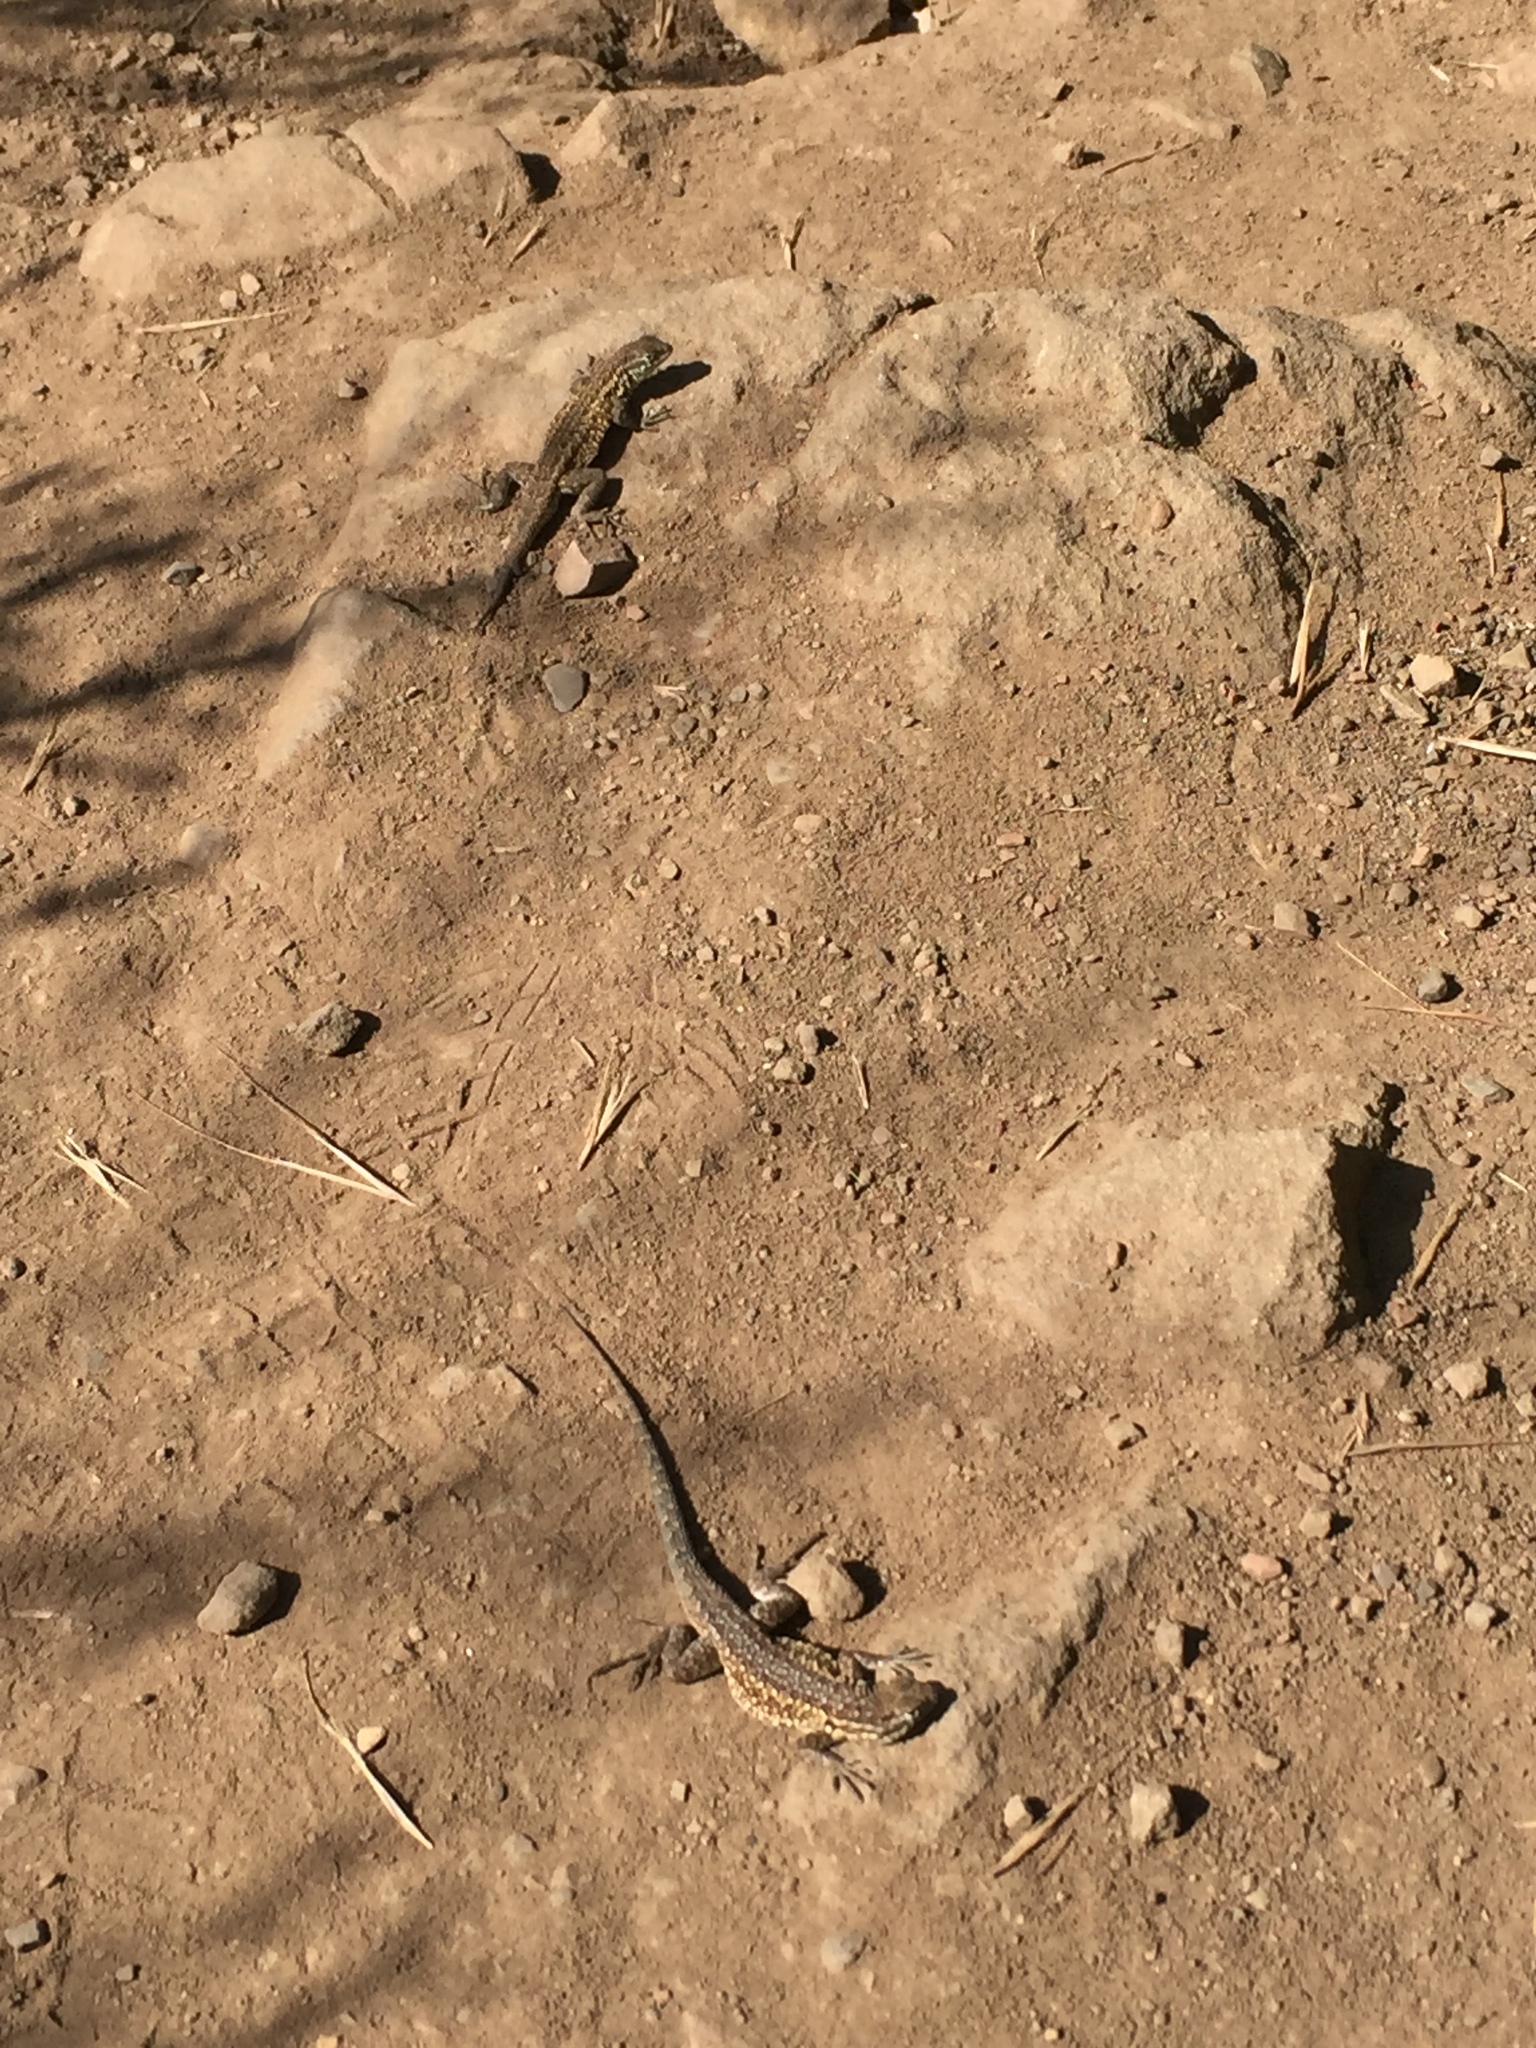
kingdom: Animalia
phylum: Chordata
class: Squamata
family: Phrynosomatidae
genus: Uta
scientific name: Uta stansburiana
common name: Side-blotched lizard
